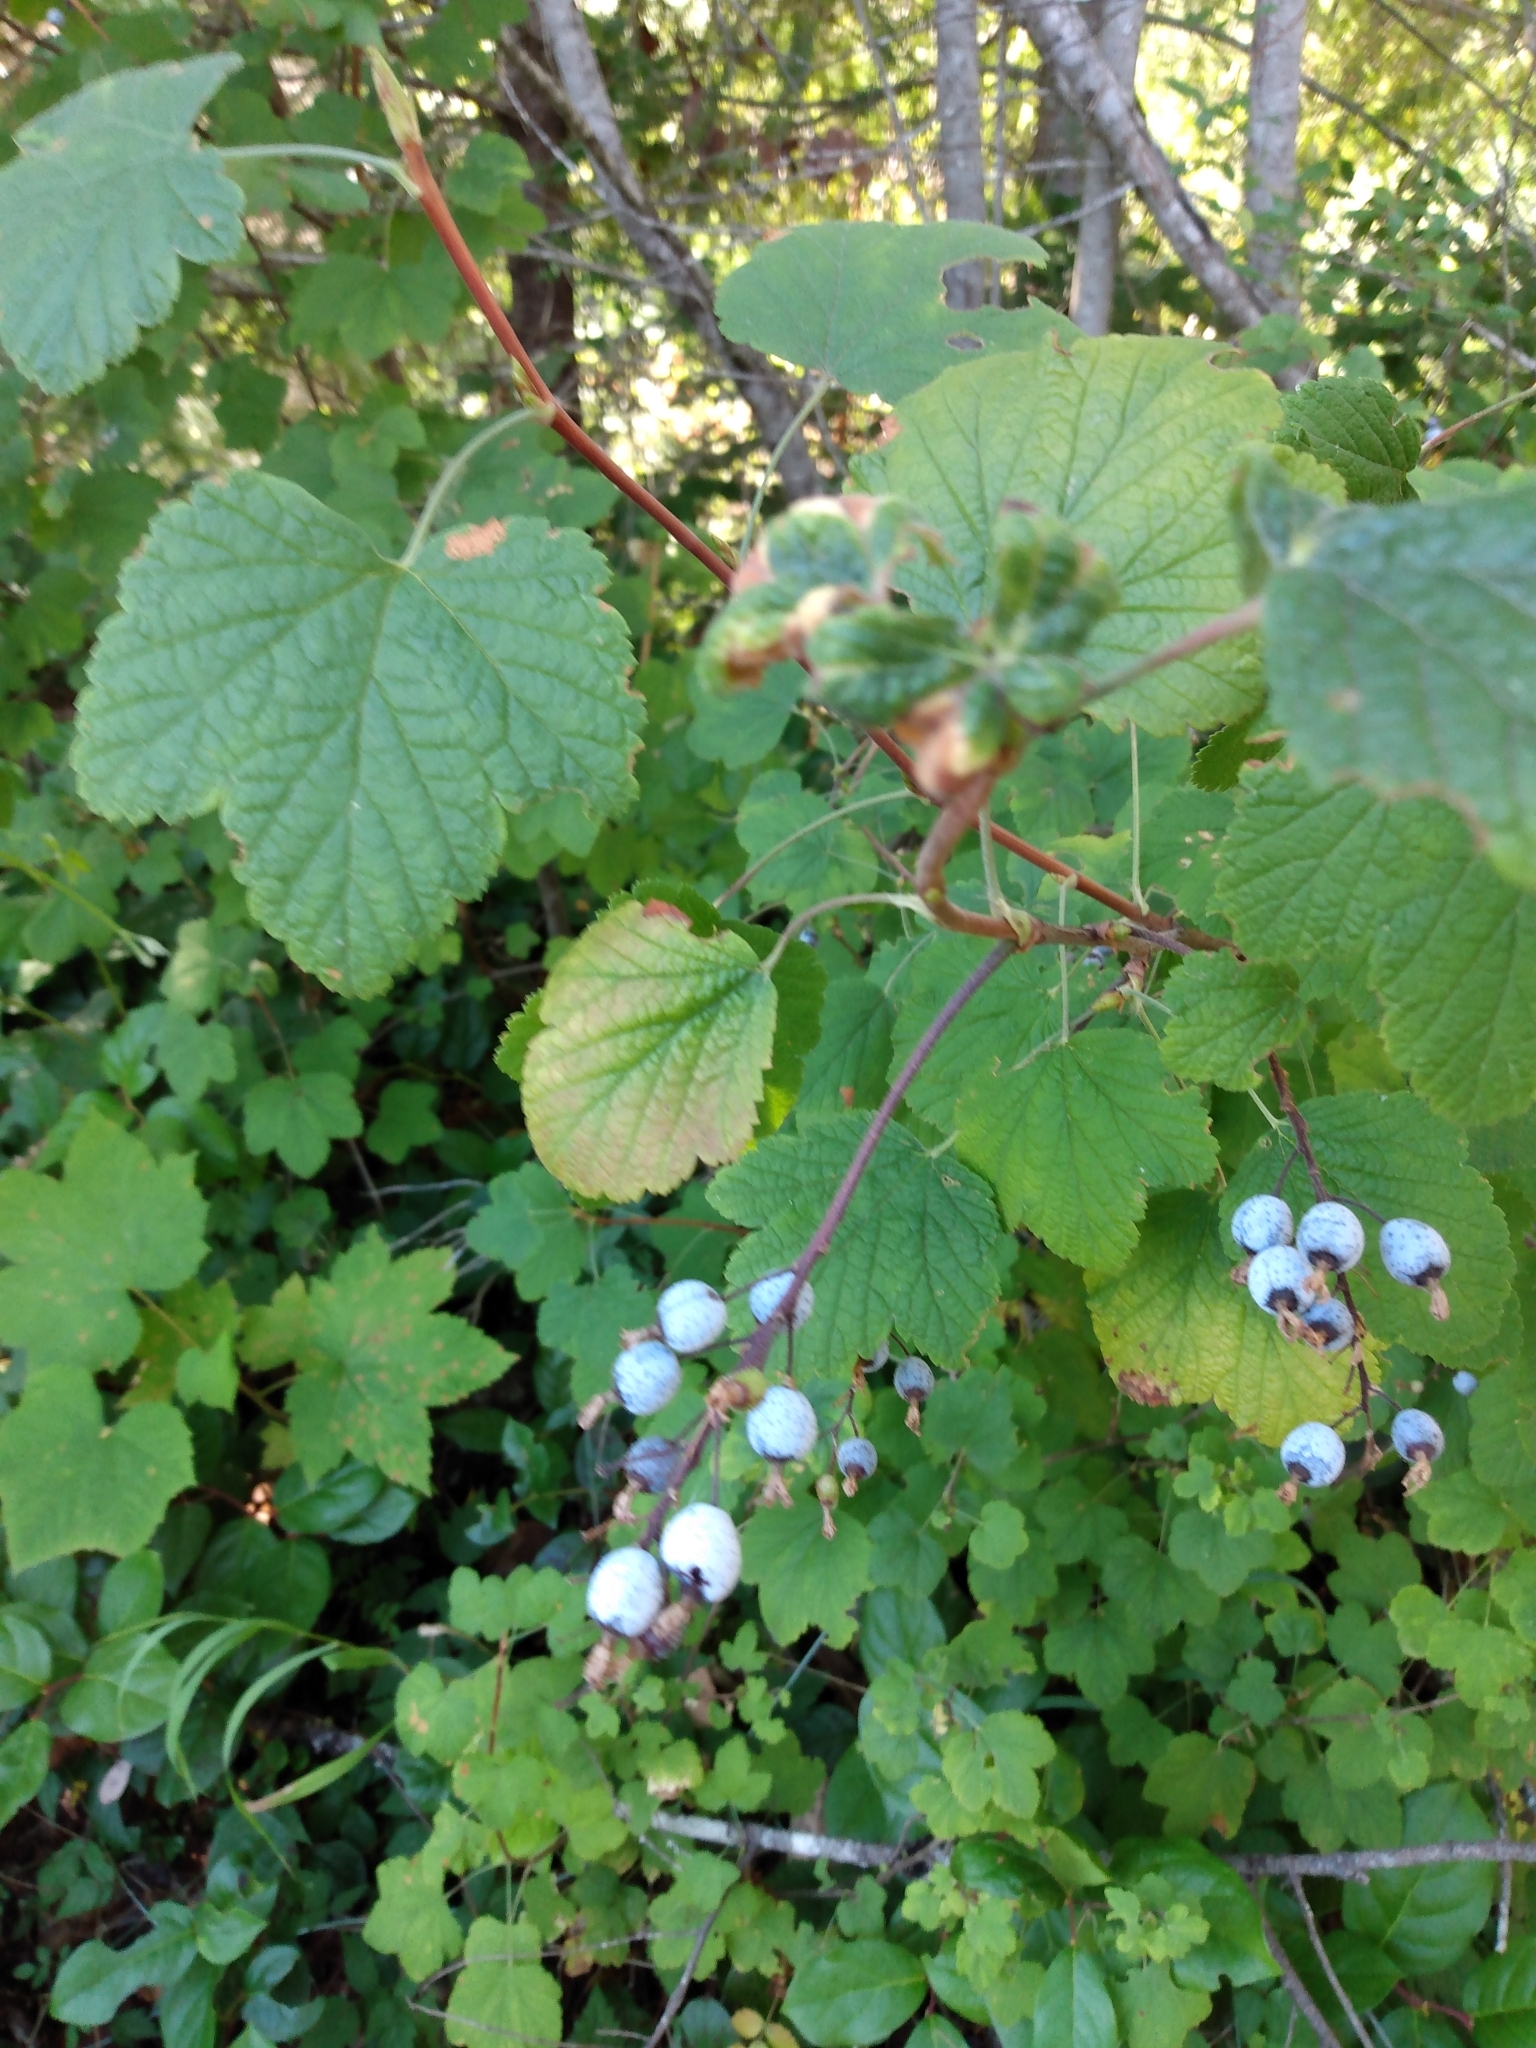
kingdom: Plantae
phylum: Tracheophyta
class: Magnoliopsida
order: Saxifragales
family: Grossulariaceae
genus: Ribes
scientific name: Ribes sanguineum
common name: Flowering currant
